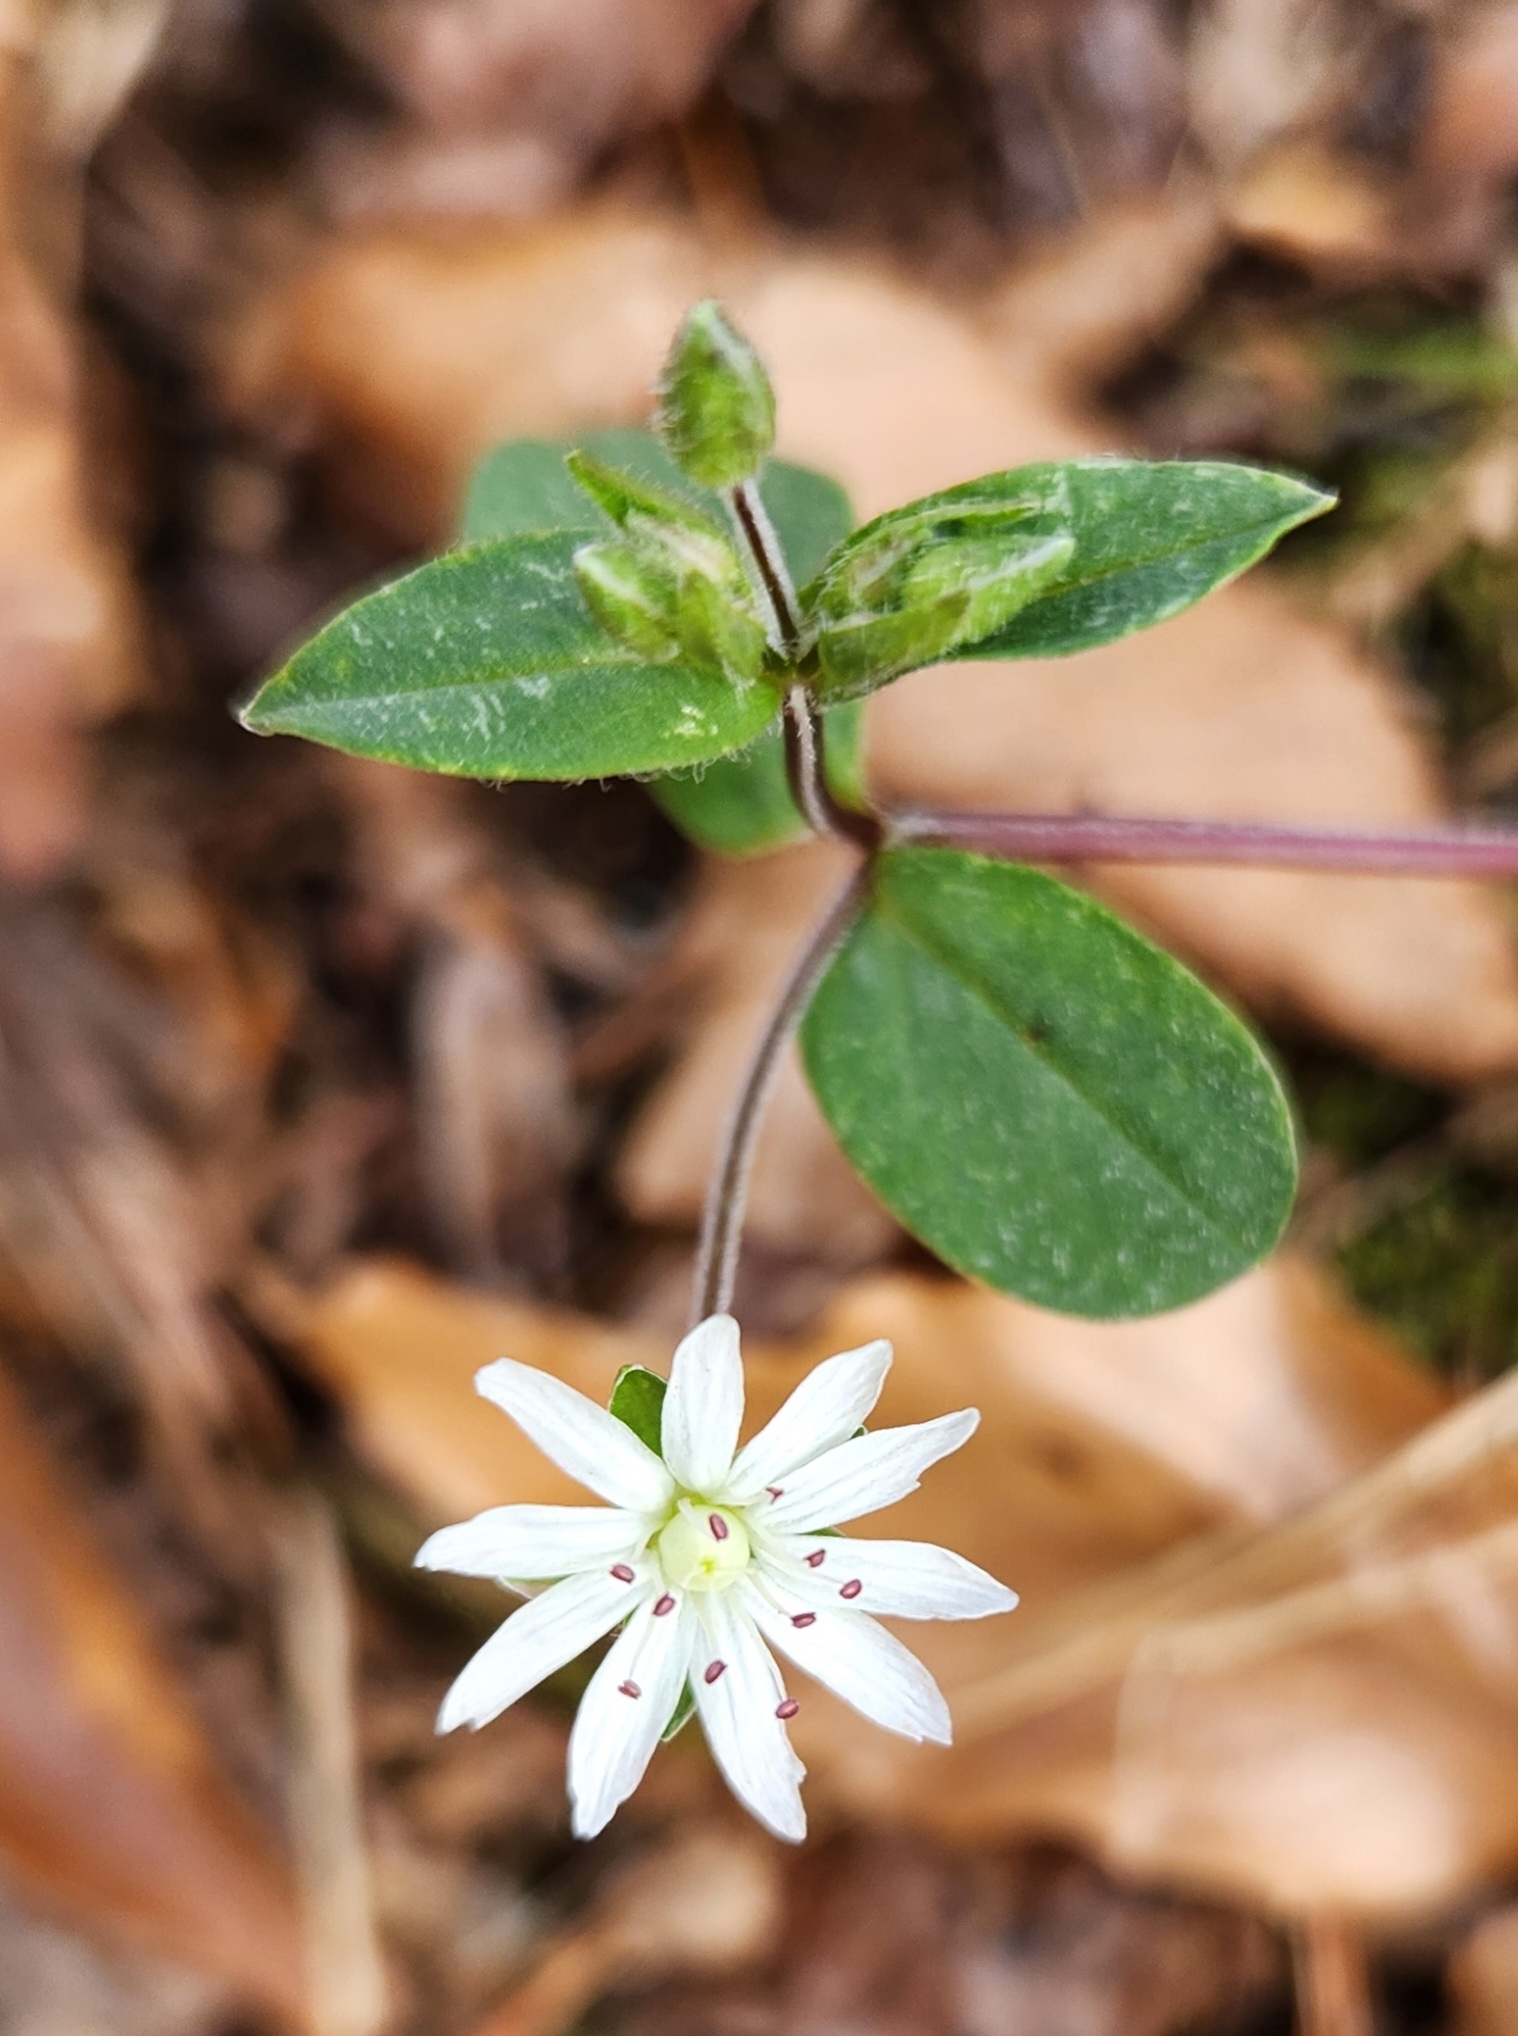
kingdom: Plantae
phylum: Tracheophyta
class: Magnoliopsida
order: Caryophyllales
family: Caryophyllaceae
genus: Stellaria
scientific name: Stellaria pubera
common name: Star chickweed
